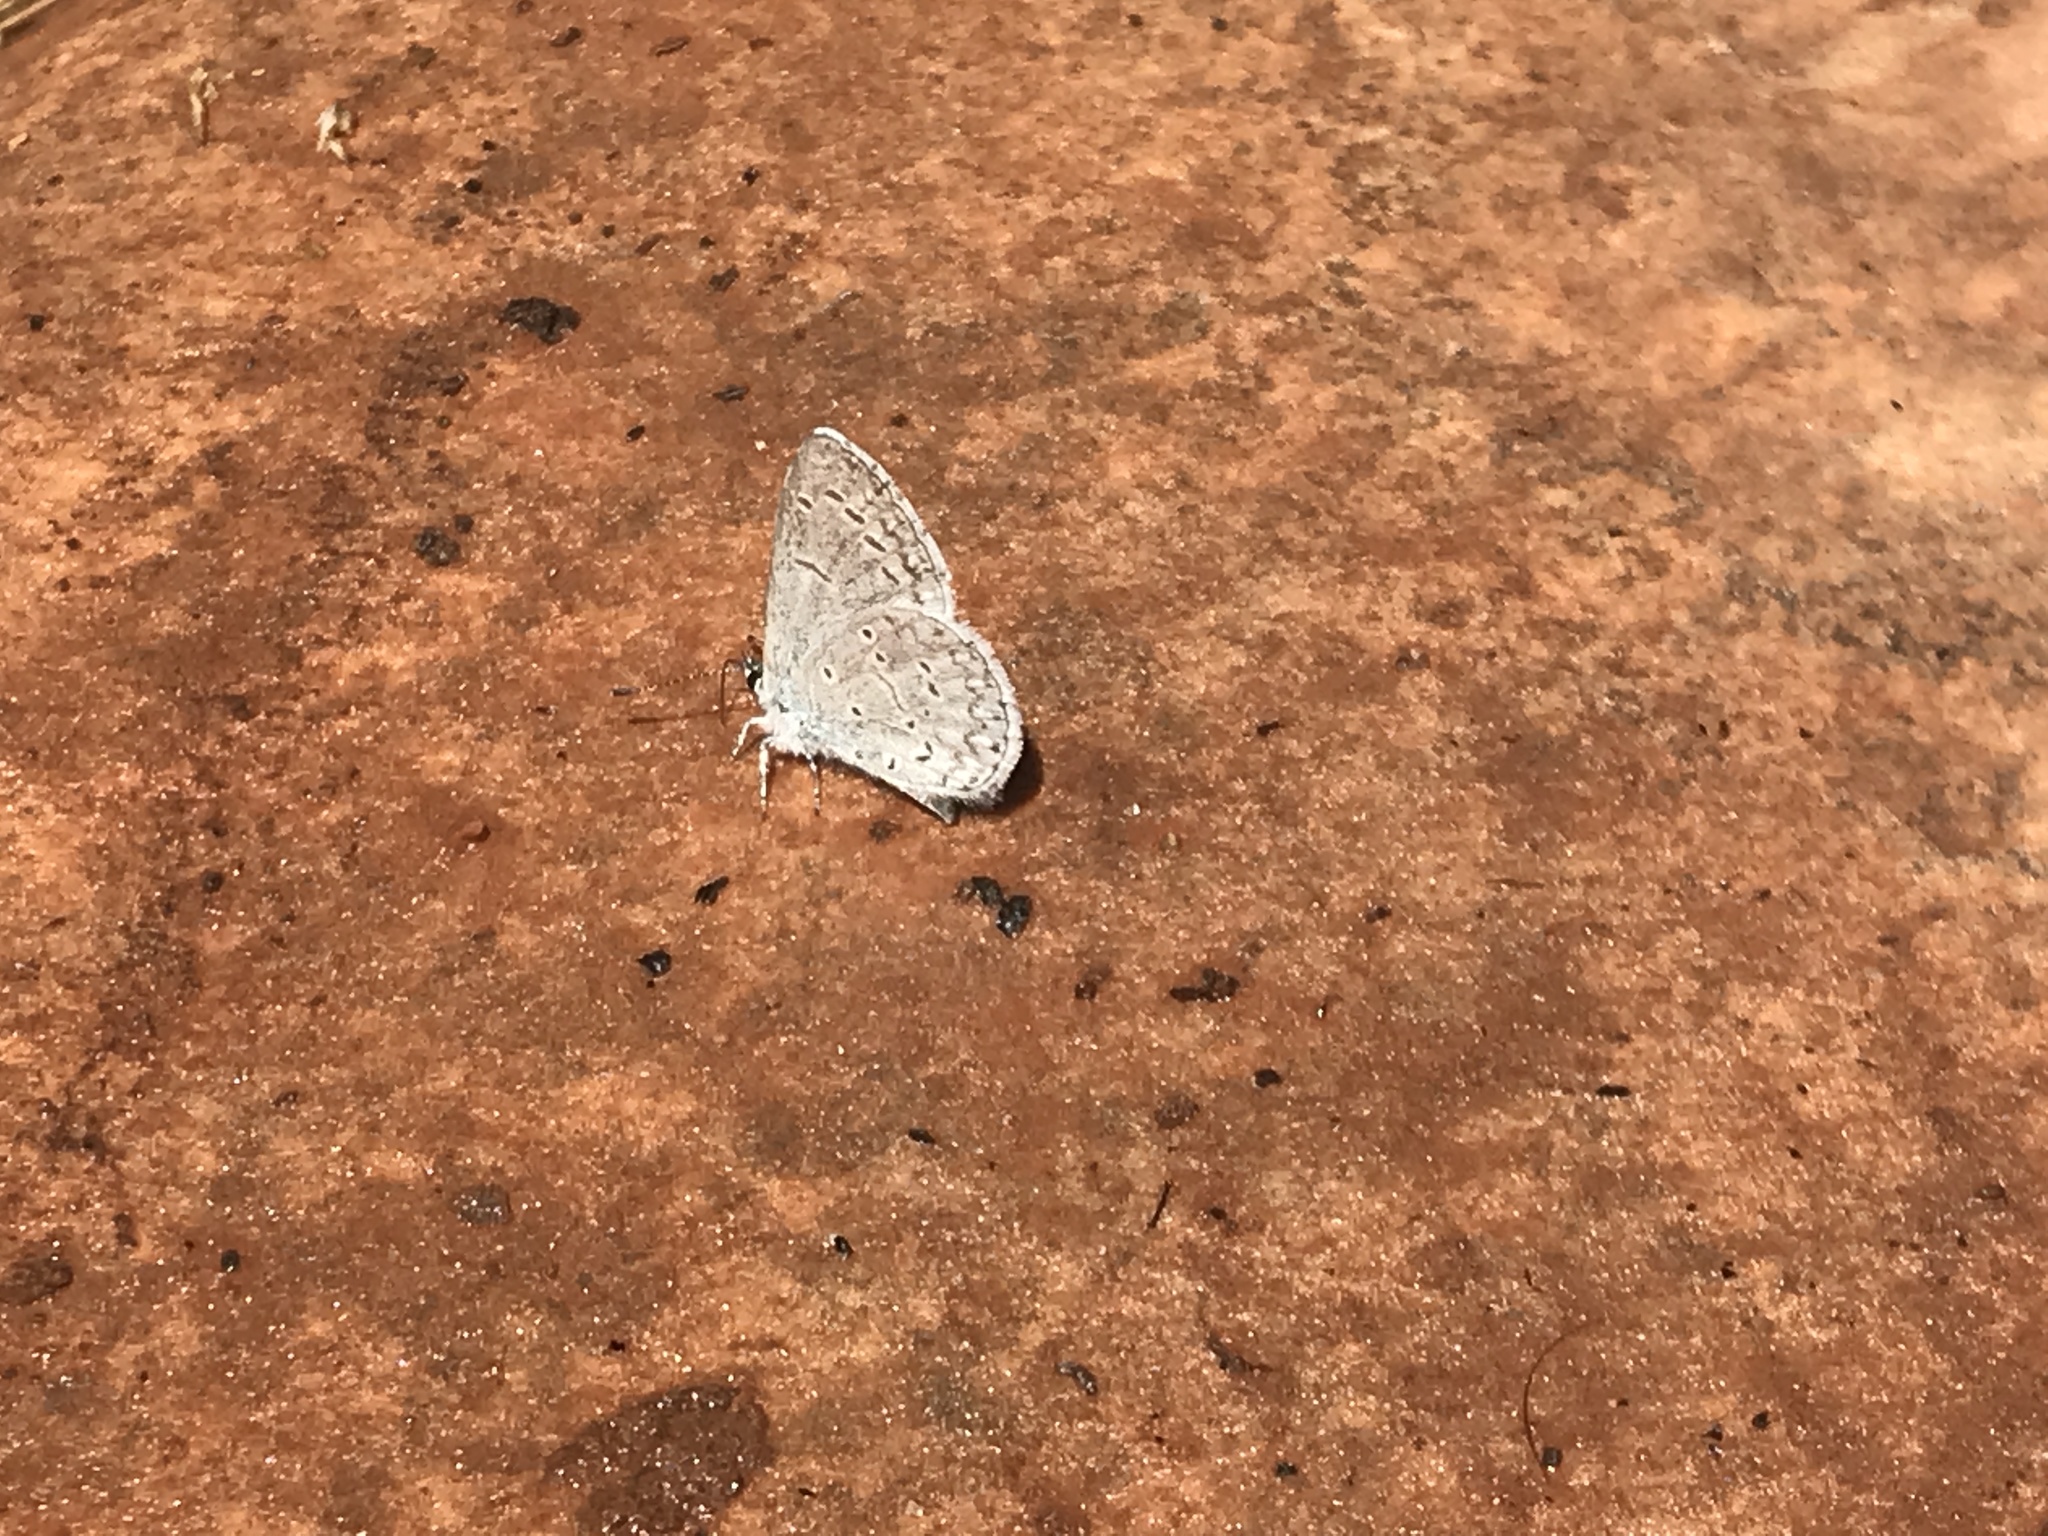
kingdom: Animalia
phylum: Arthropoda
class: Insecta
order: Lepidoptera
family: Lycaenidae
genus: Celastrina
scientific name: Celastrina argiolus
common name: Holly blue
